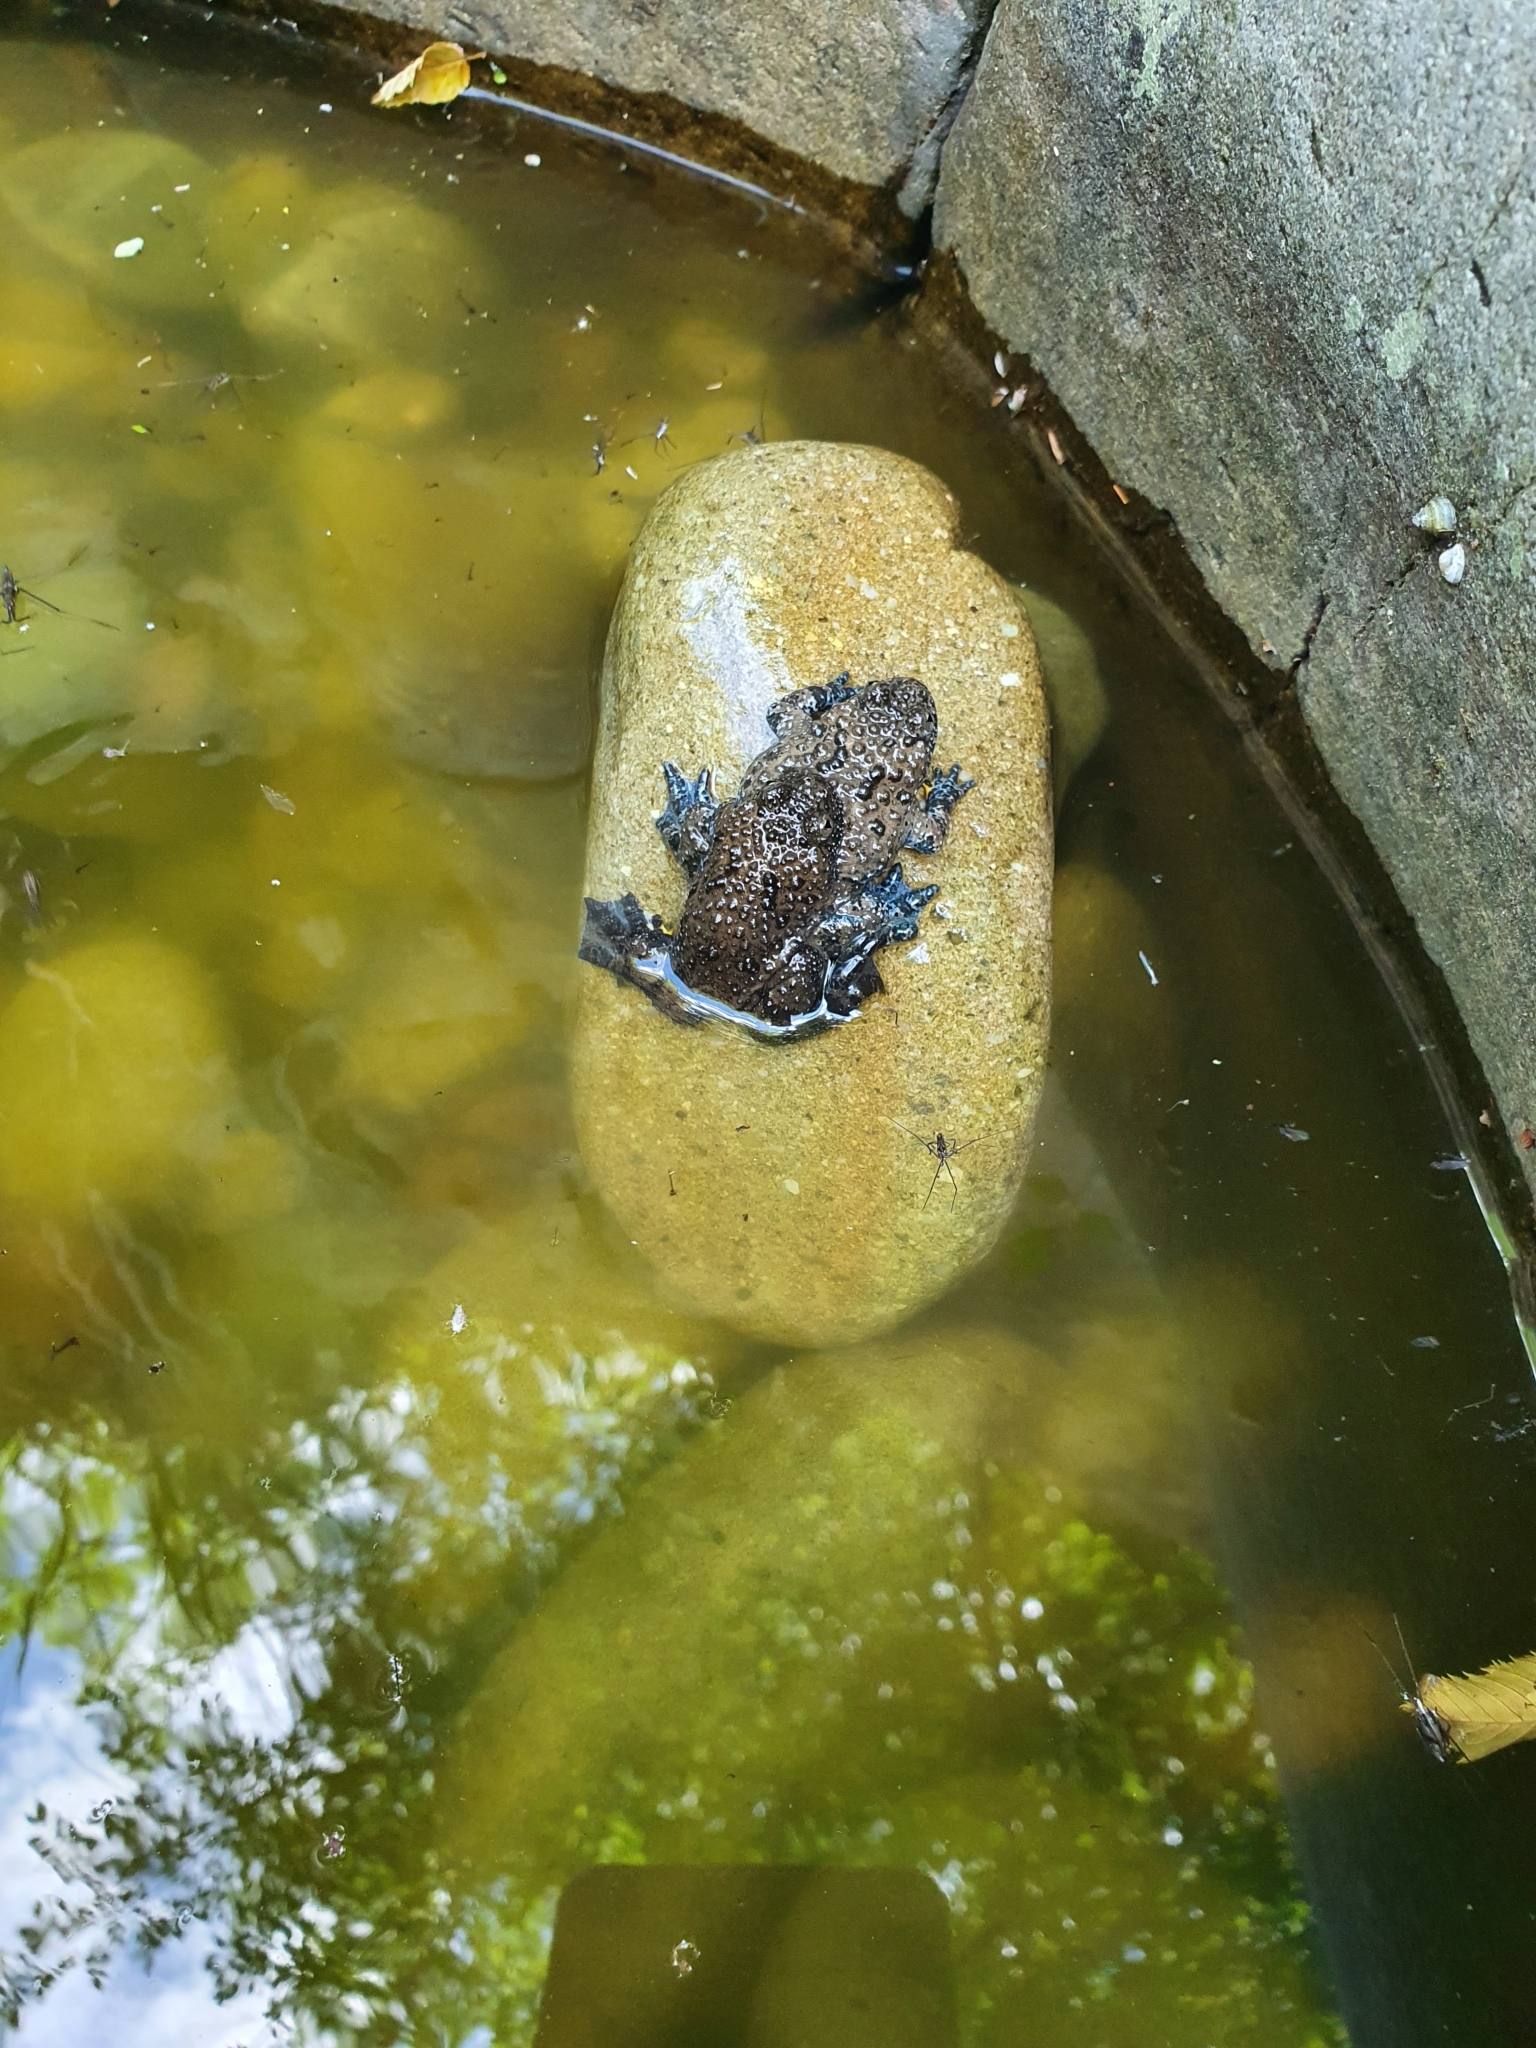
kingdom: Animalia
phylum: Chordata
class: Amphibia
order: Anura
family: Bombinatoridae
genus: Bombina
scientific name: Bombina variegata
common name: Yellow-bellied toad
